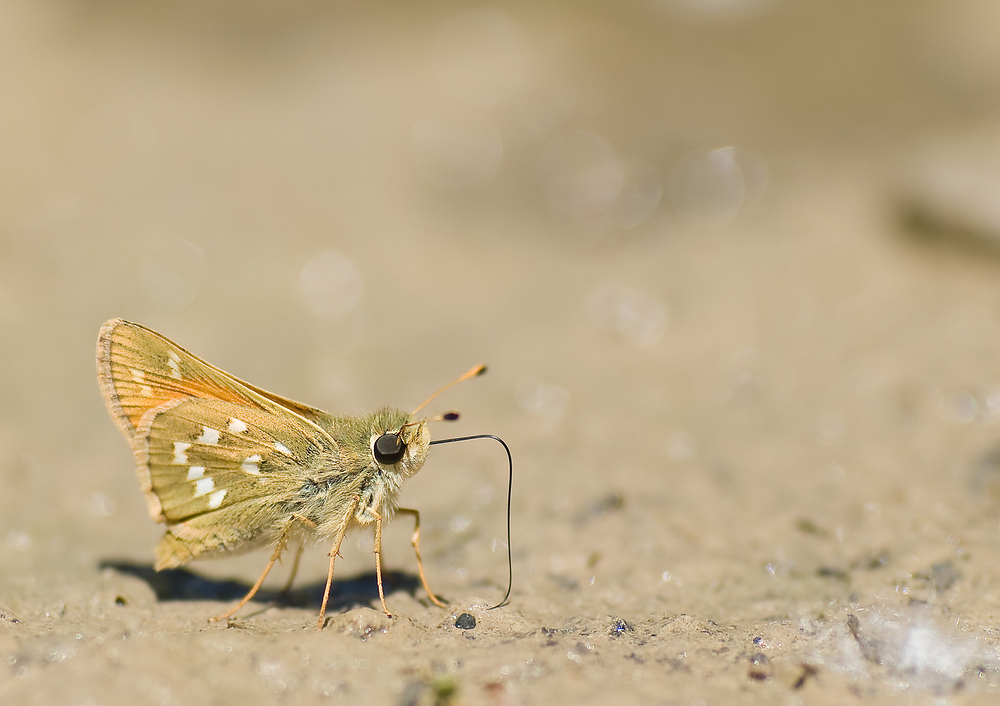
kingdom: Animalia
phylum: Arthropoda
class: Insecta
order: Lepidoptera
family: Hesperiidae
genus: Hesperia
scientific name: Hesperia comma
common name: Common branded skipper
